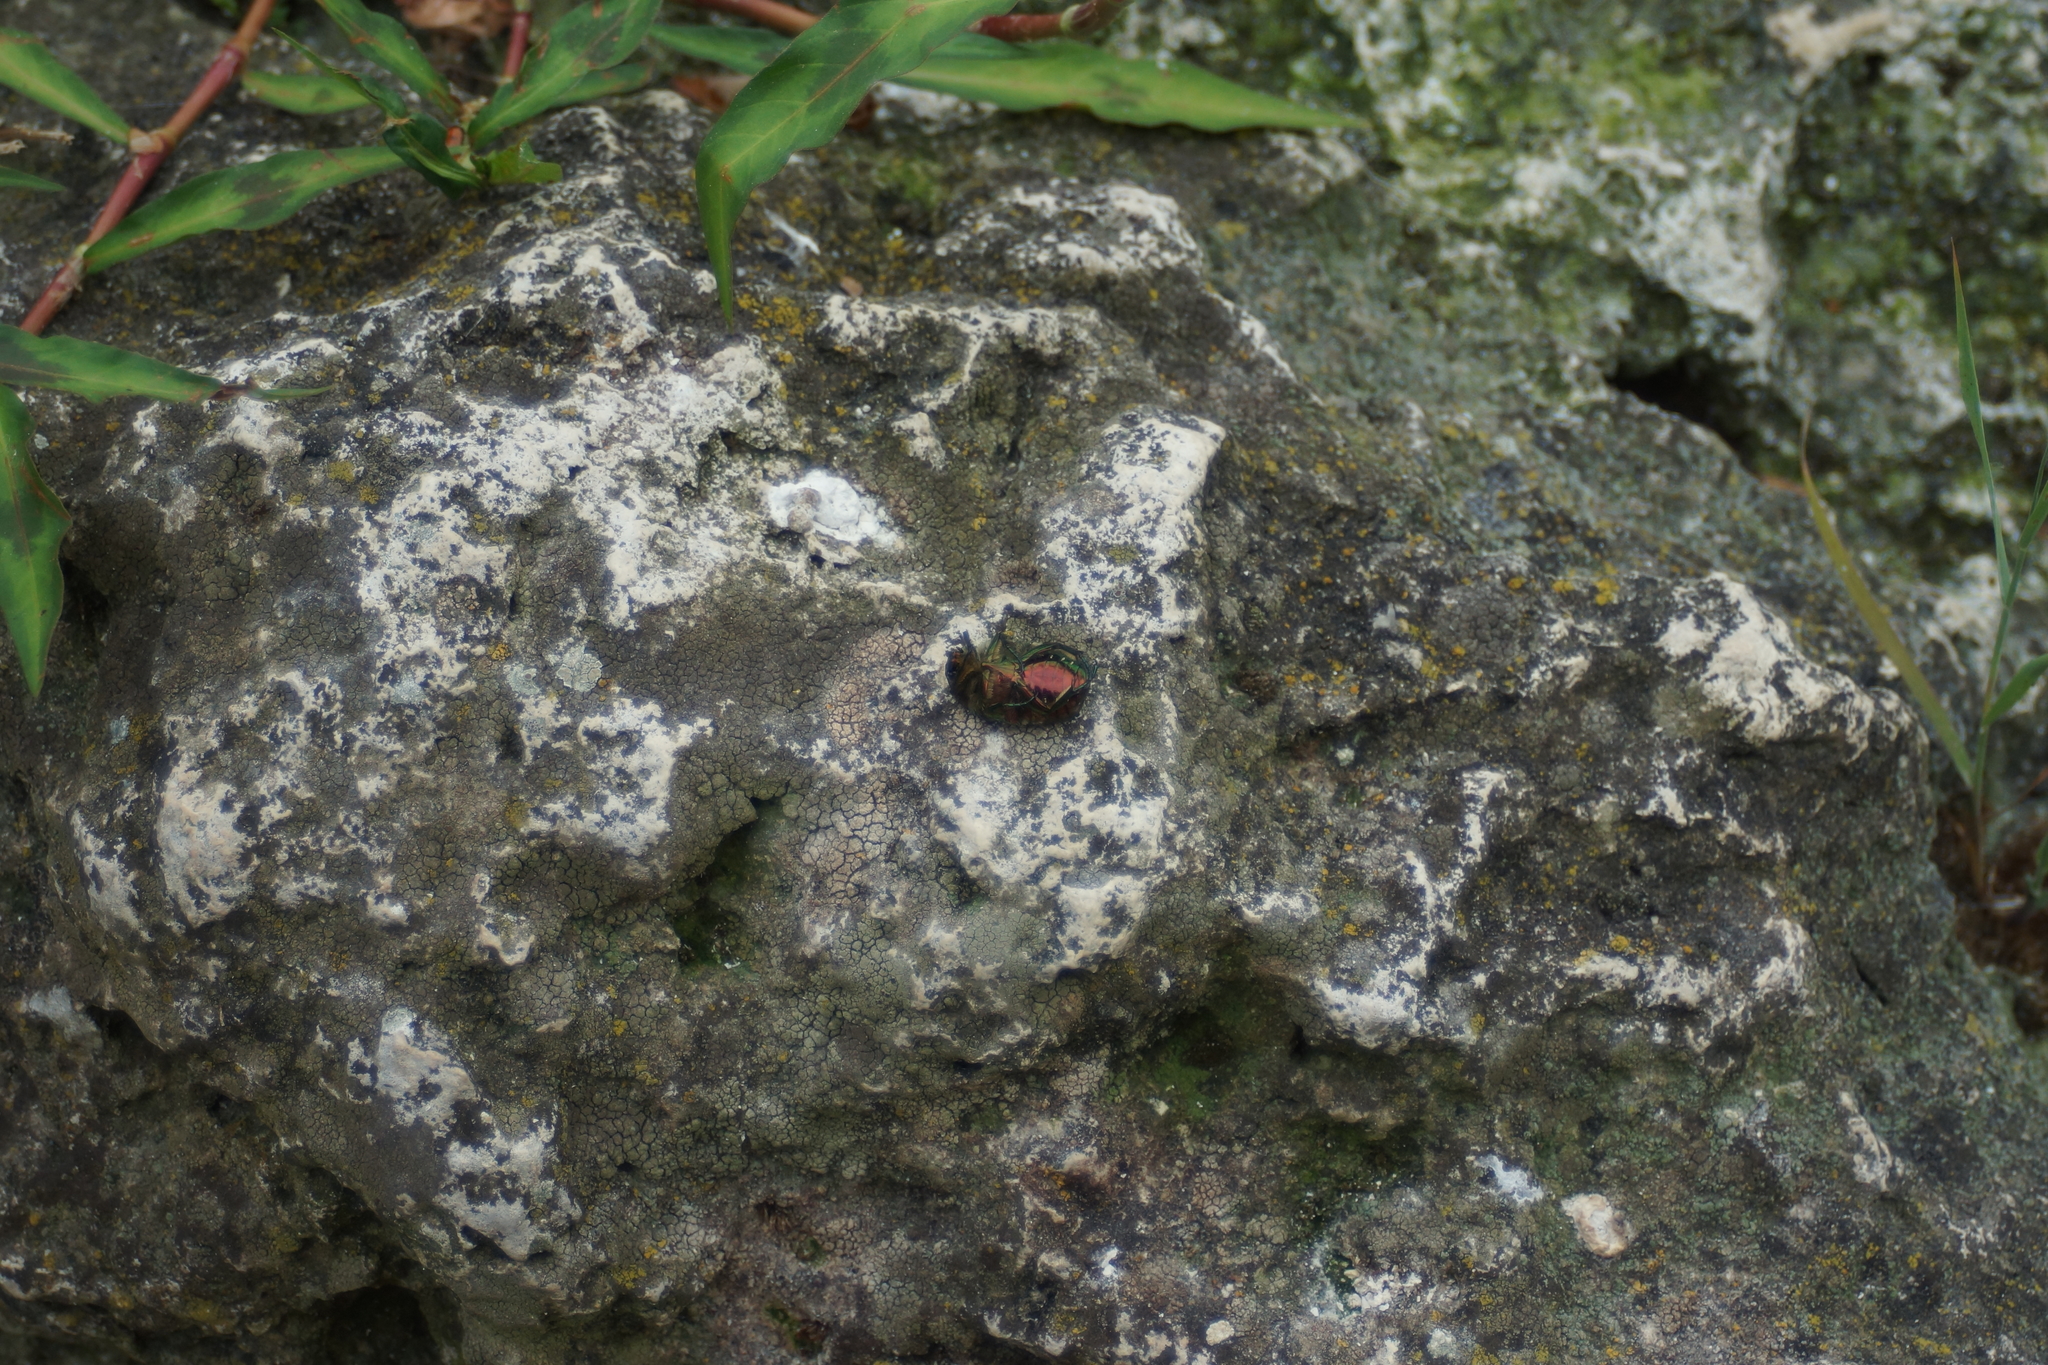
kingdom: Animalia
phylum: Arthropoda
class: Insecta
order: Coleoptera
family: Scarabaeidae
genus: Cetonia
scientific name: Cetonia aurata
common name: Rose chafer
